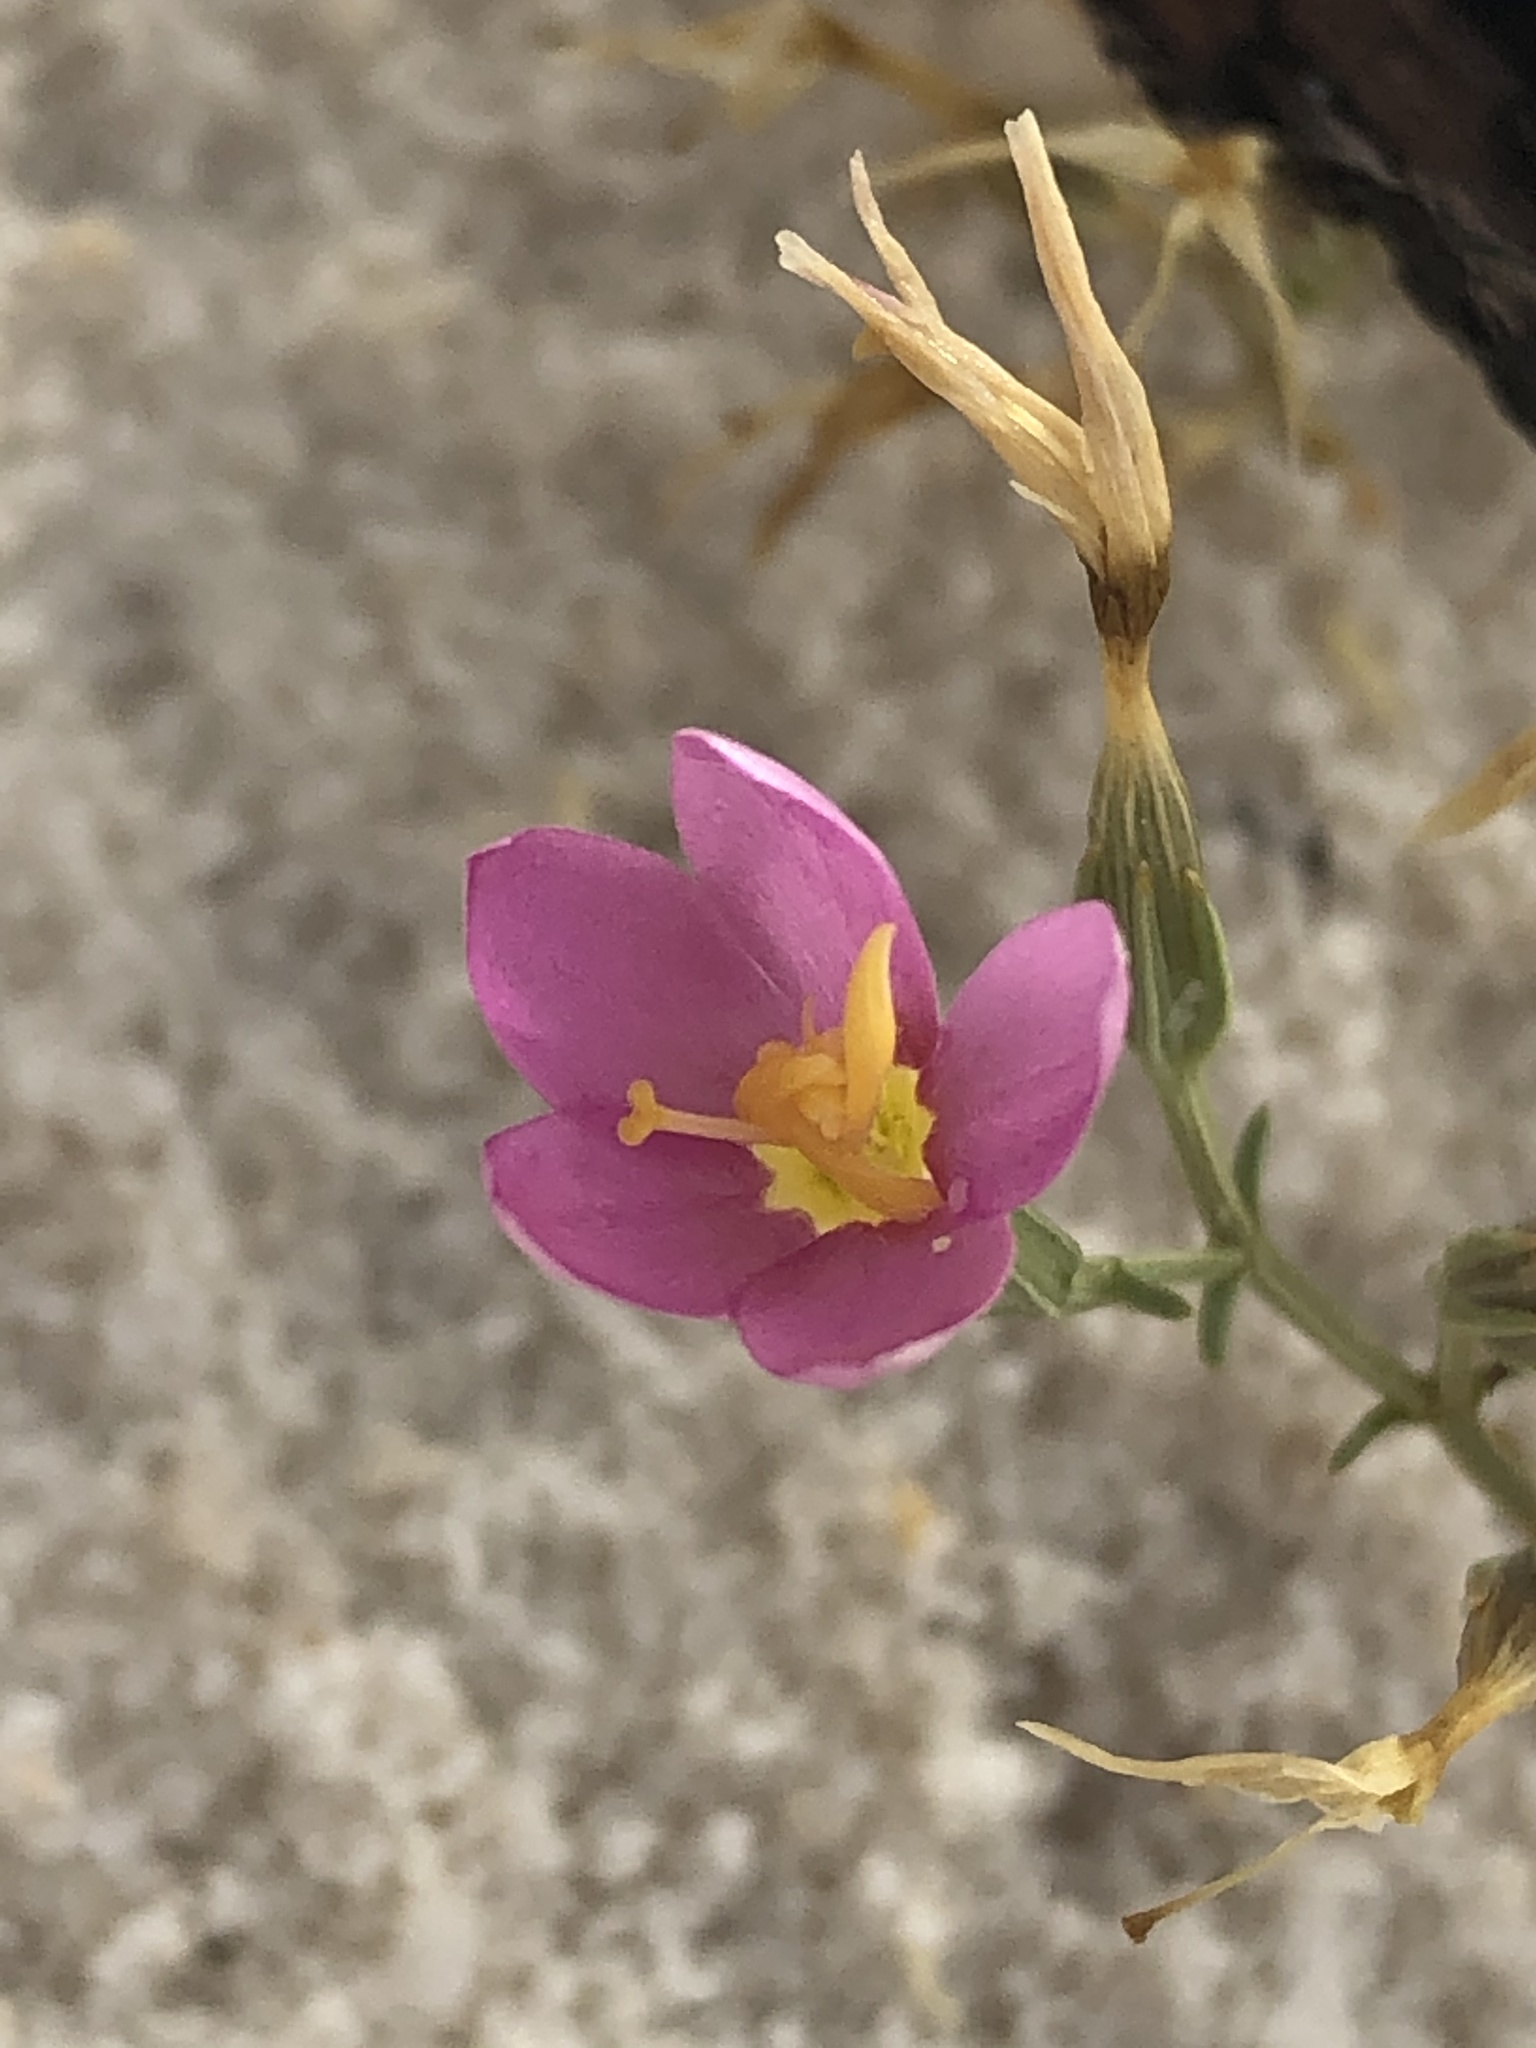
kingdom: Plantae
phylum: Tracheophyta
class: Magnoliopsida
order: Gentianales
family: Gentianaceae
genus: Zeltnera
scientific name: Zeltnera maryanniana
